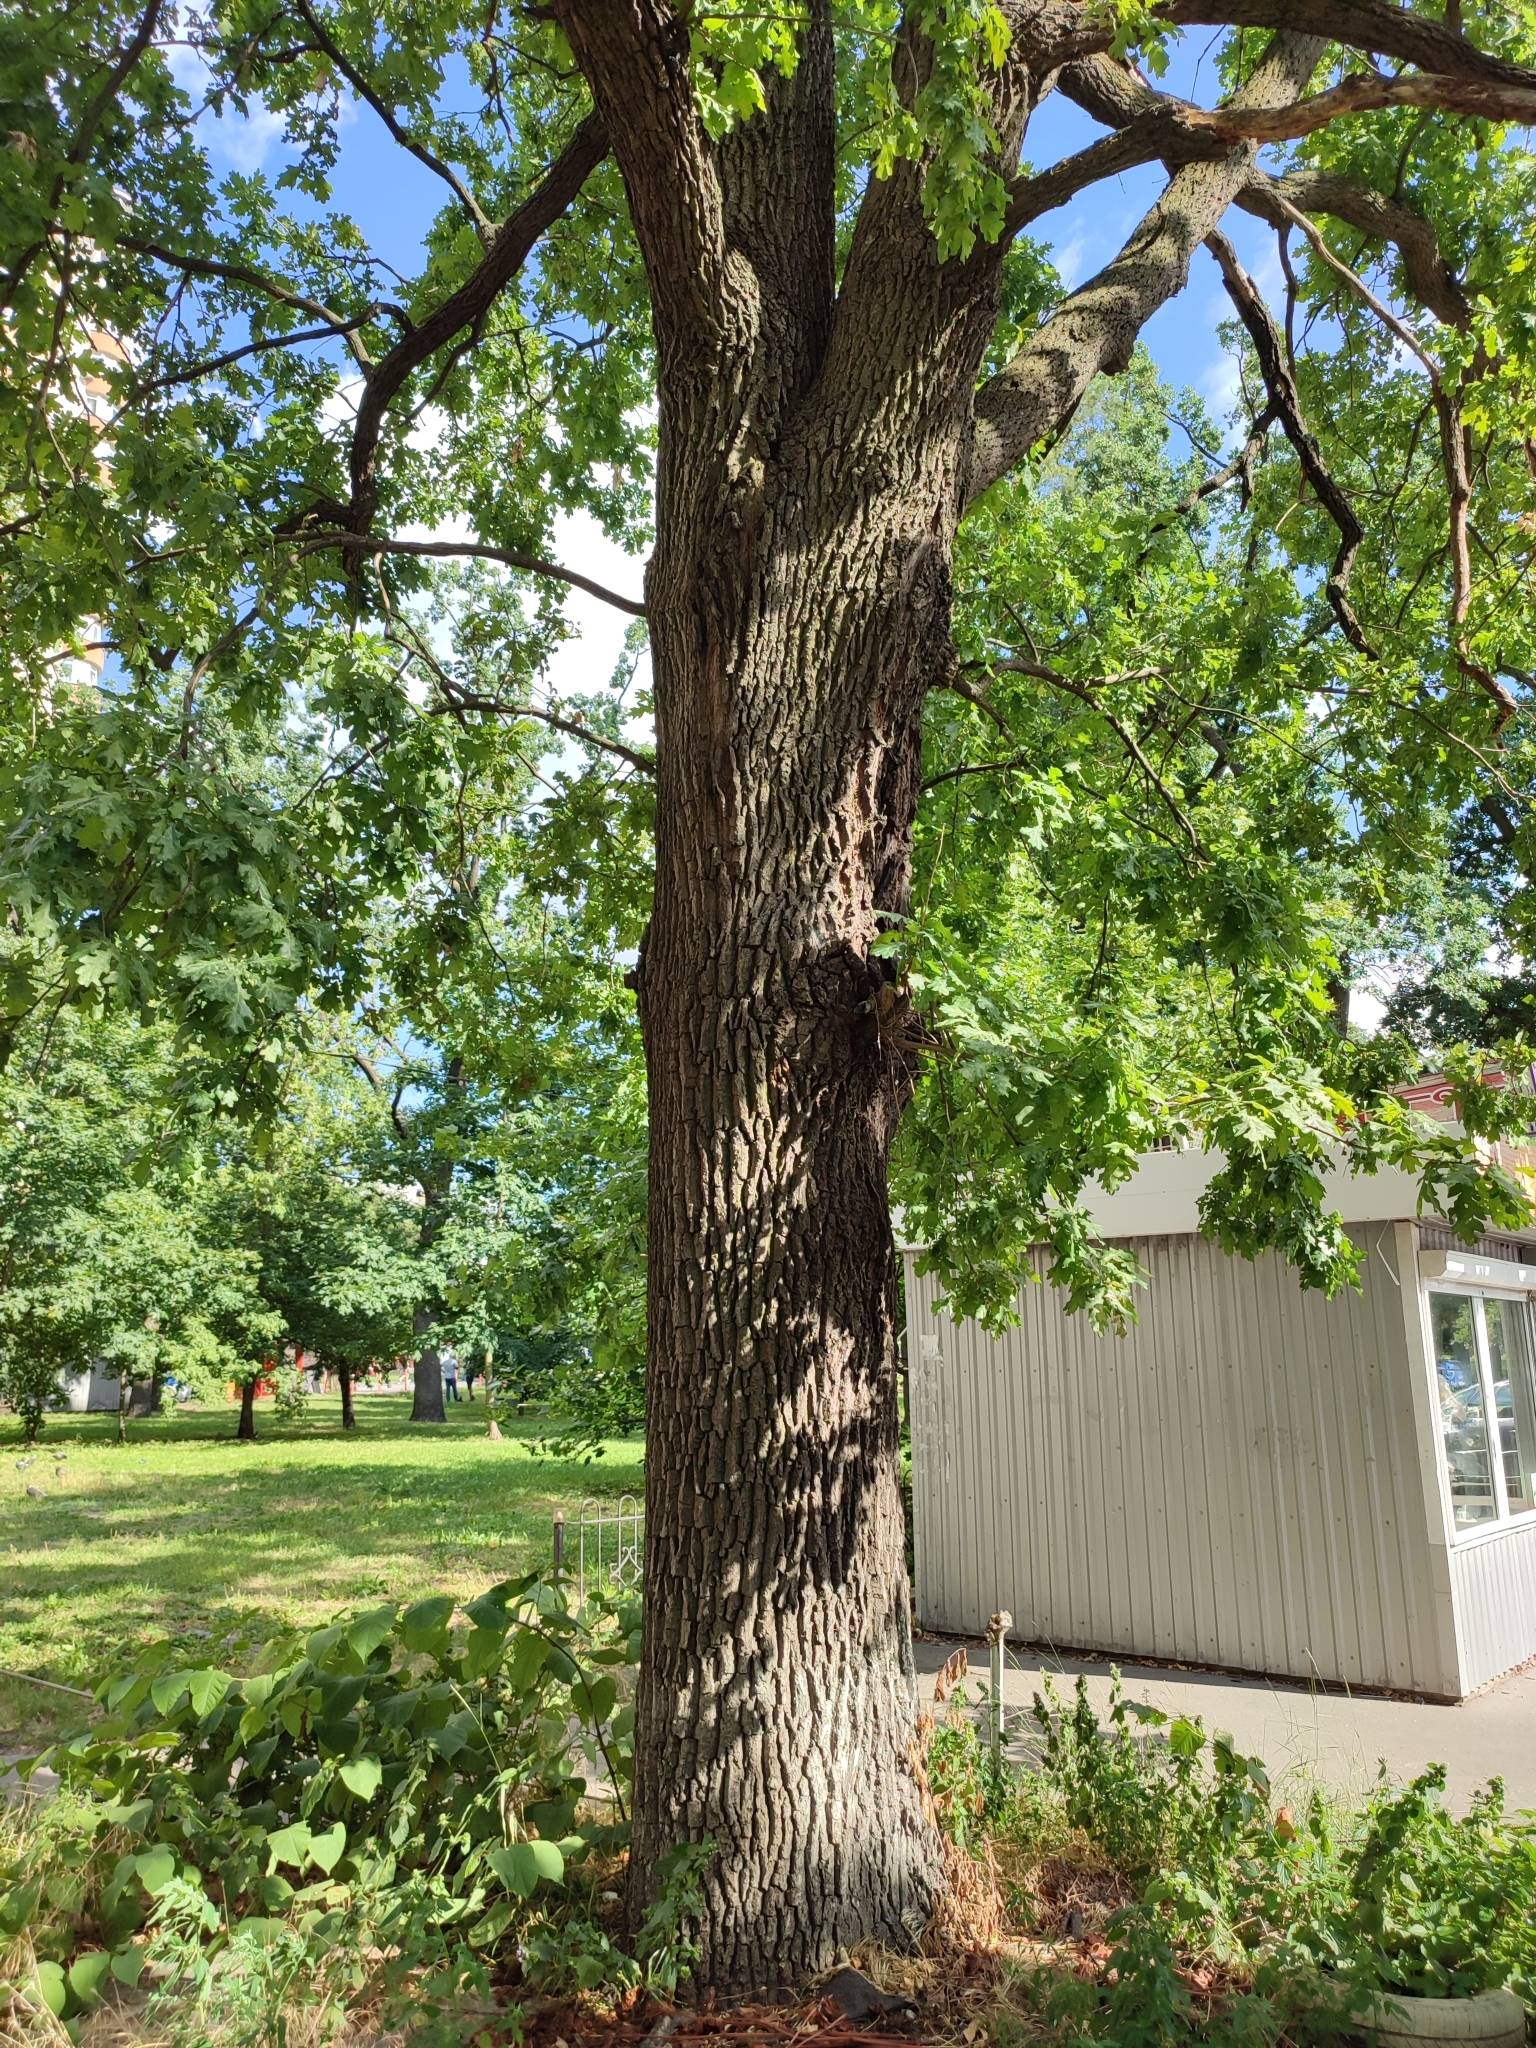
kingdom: Plantae
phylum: Tracheophyta
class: Magnoliopsida
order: Fagales
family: Fagaceae
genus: Quercus
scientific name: Quercus robur
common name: Pedunculate oak
